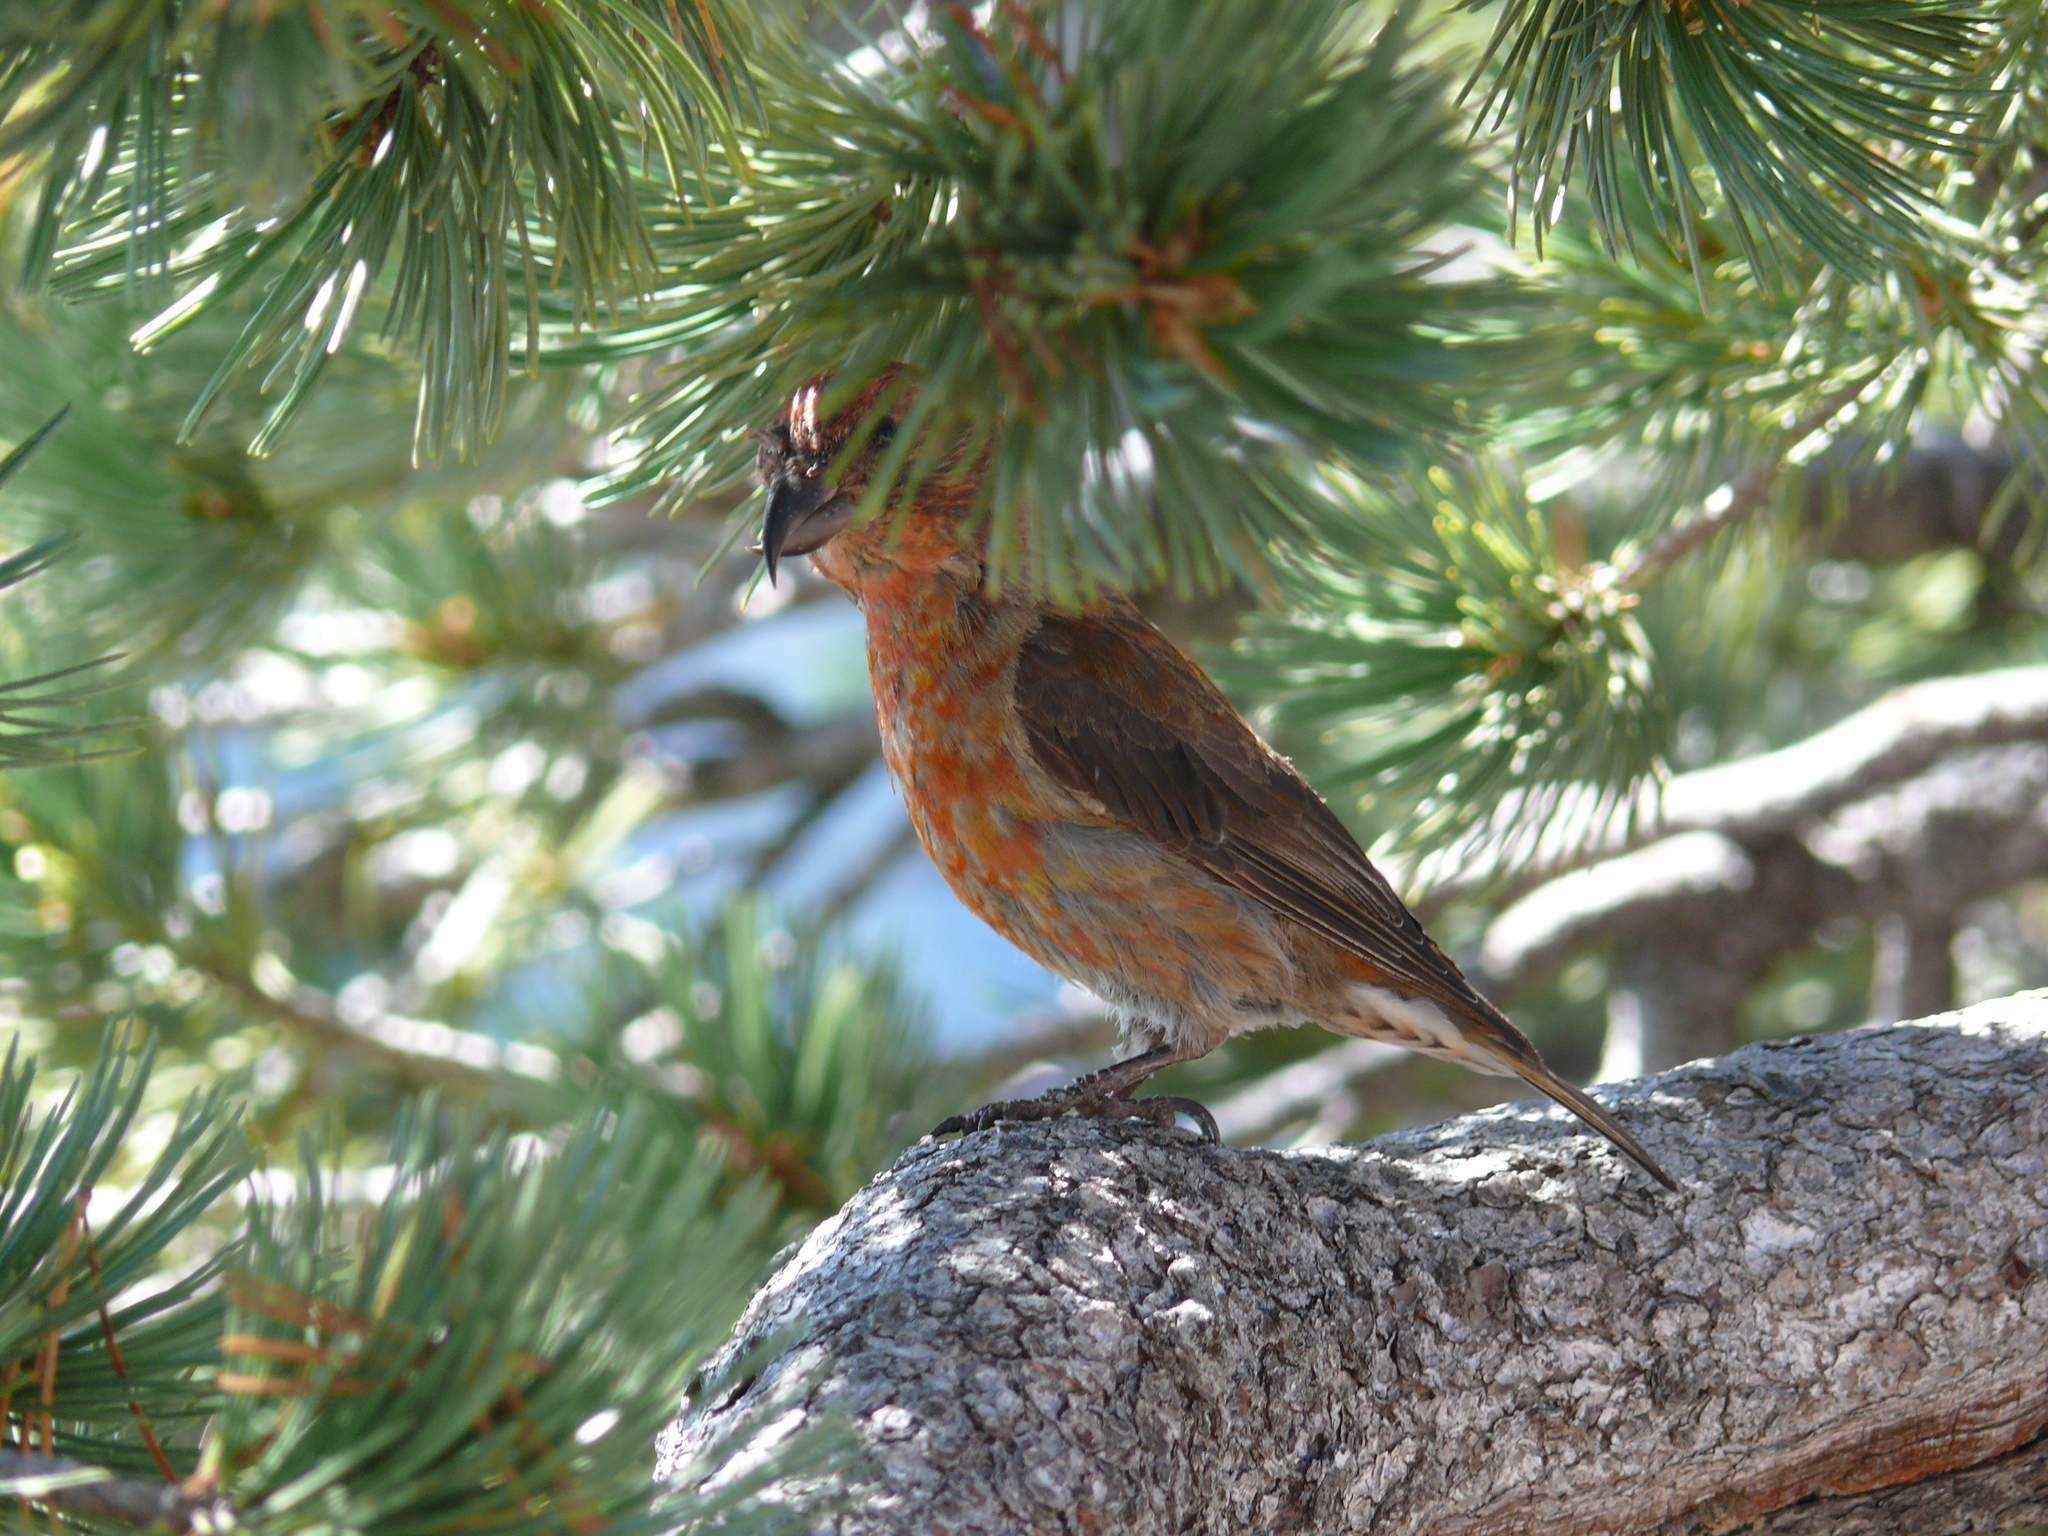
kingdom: Animalia
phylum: Chordata
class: Aves
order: Passeriformes
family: Fringillidae
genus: Loxia
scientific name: Loxia curvirostra
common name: Red crossbill
